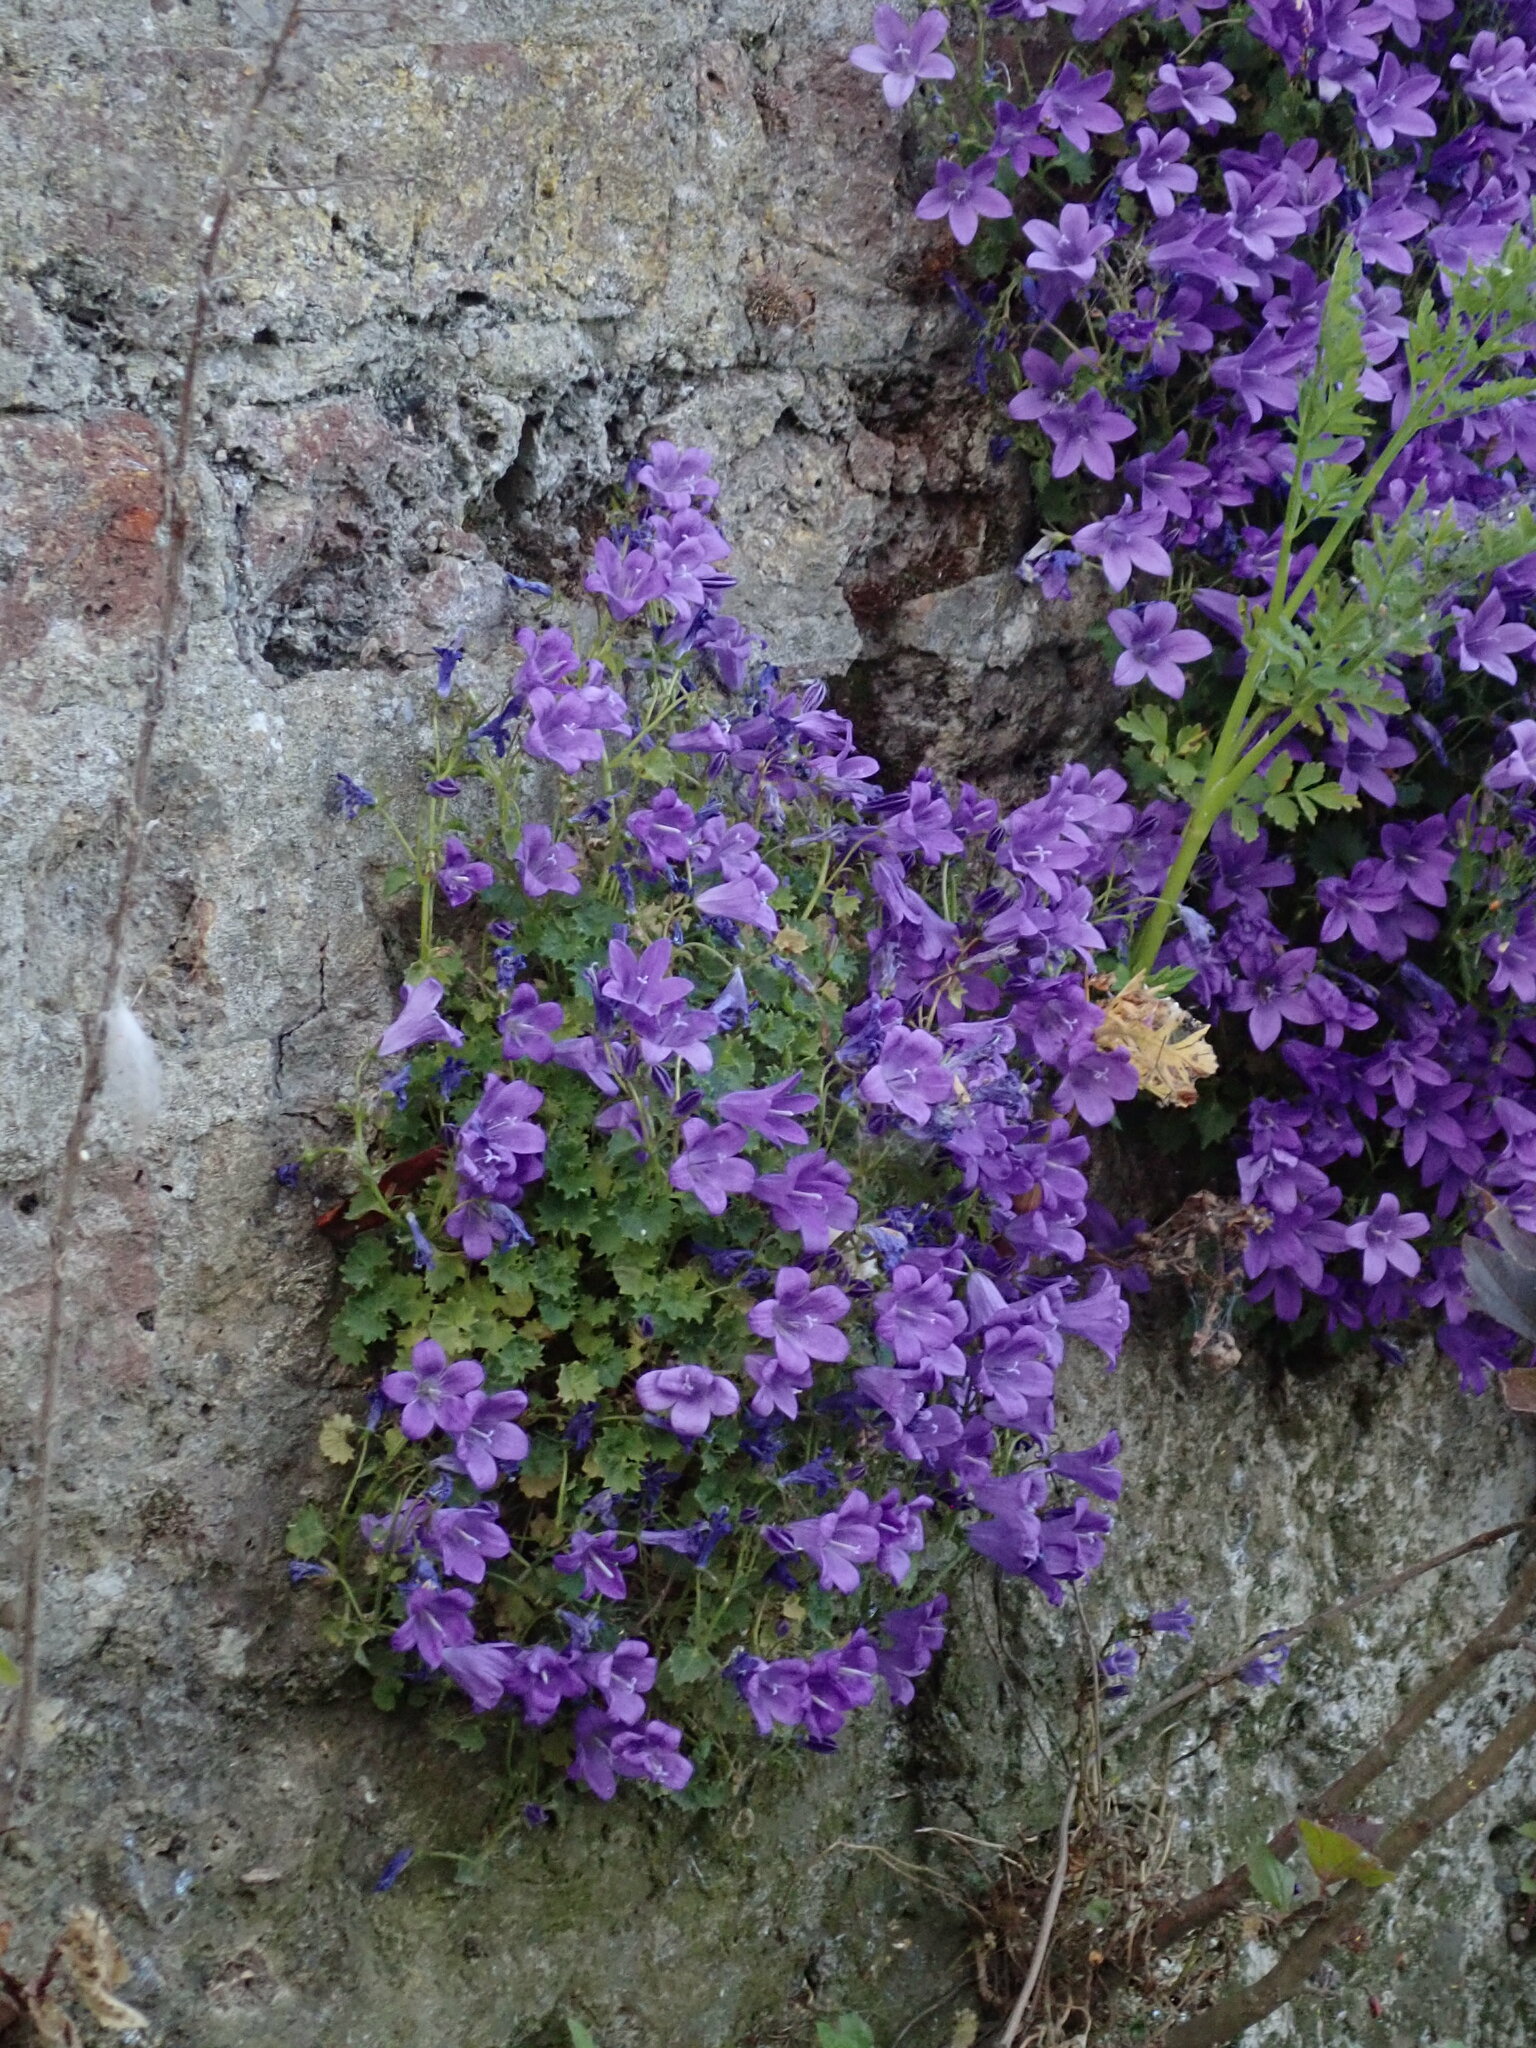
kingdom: Plantae
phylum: Tracheophyta
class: Magnoliopsida
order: Asterales
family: Campanulaceae
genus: Campanula
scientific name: Campanula portenschlagiana
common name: Adria bellflower
